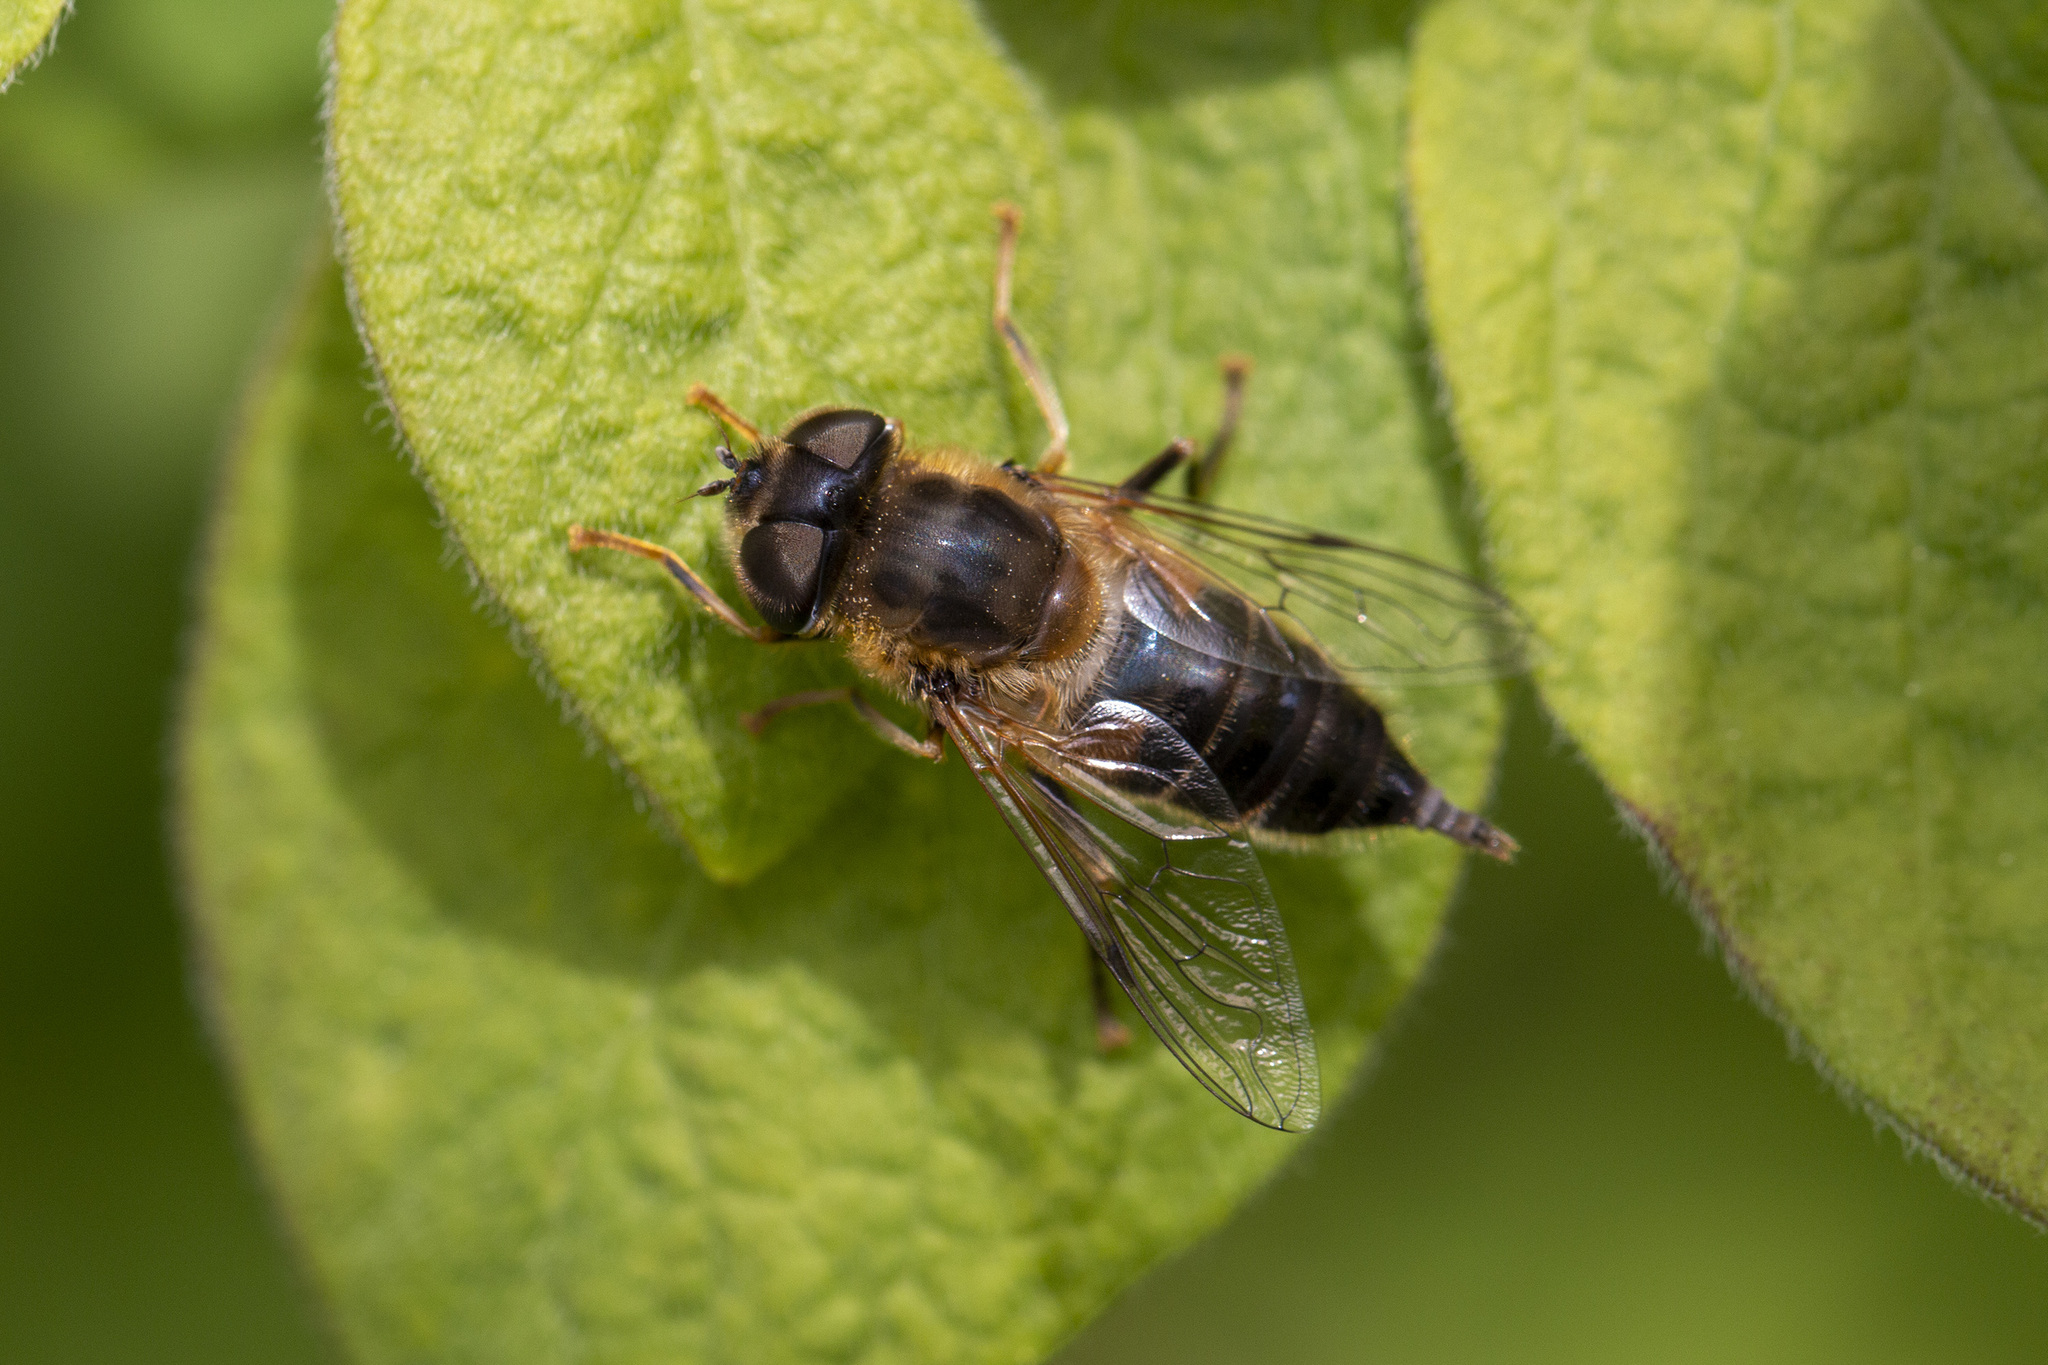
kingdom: Animalia
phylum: Arthropoda
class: Insecta
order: Diptera
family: Syrphidae
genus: Eristalis
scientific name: Eristalis pertinax
